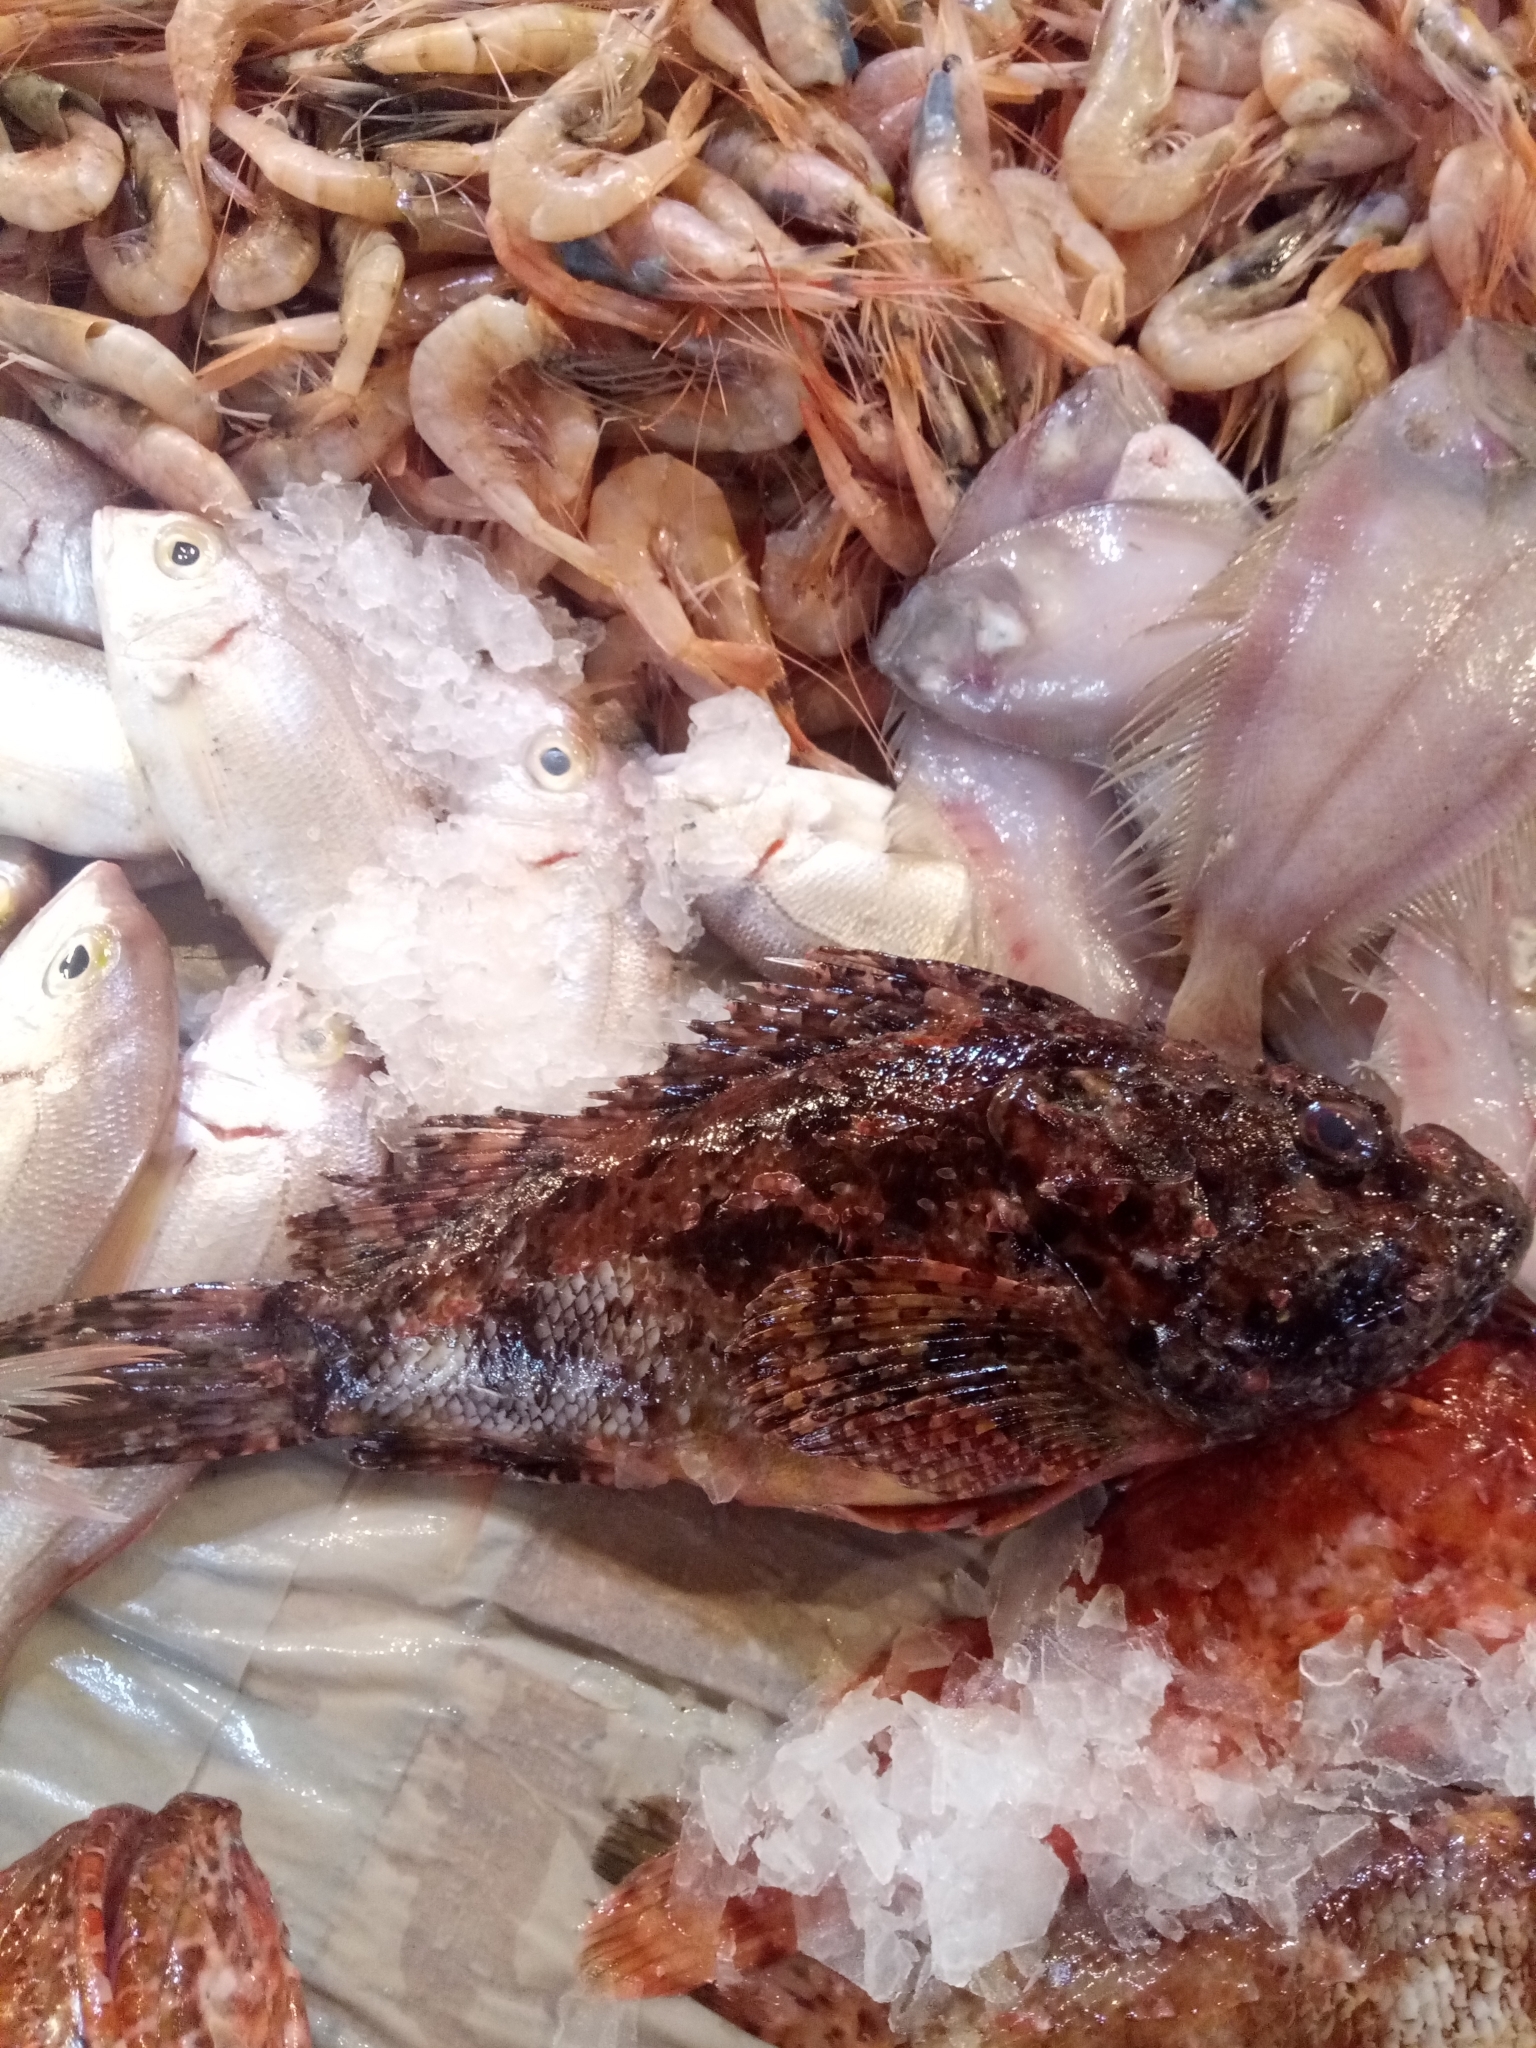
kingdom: Animalia
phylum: Chordata
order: Scorpaeniformes
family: Scorpaenidae
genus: Scorpaena
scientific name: Scorpaena scrofa
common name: Red scorpionfish
